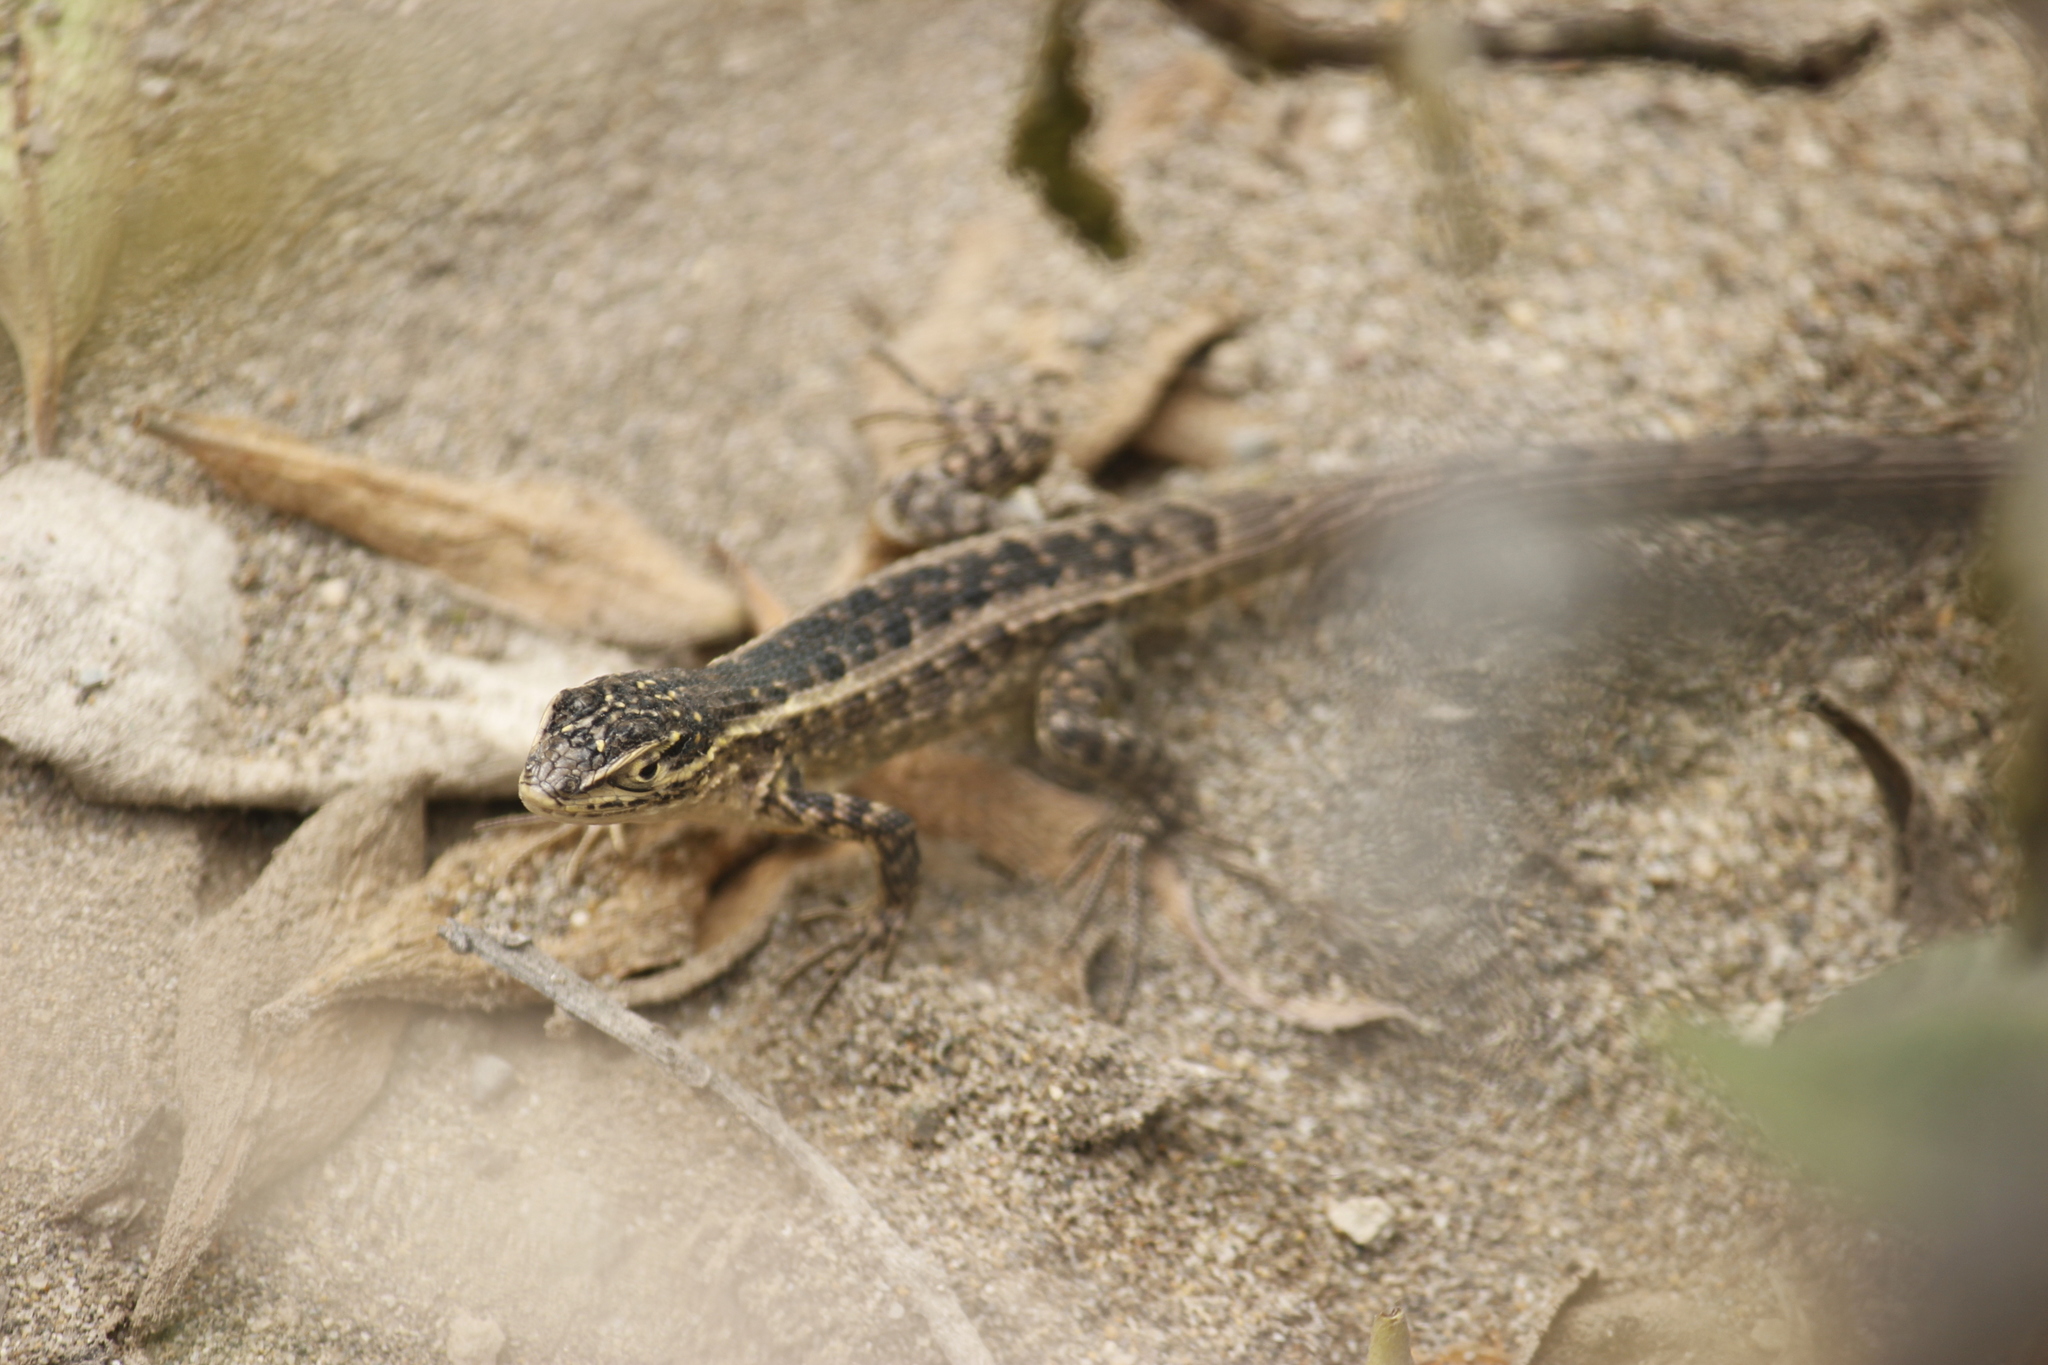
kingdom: Animalia
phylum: Chordata
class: Squamata
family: Tropiduridae
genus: Stenocercus
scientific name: Stenocercus modestus
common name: Modest whorltail iguana
